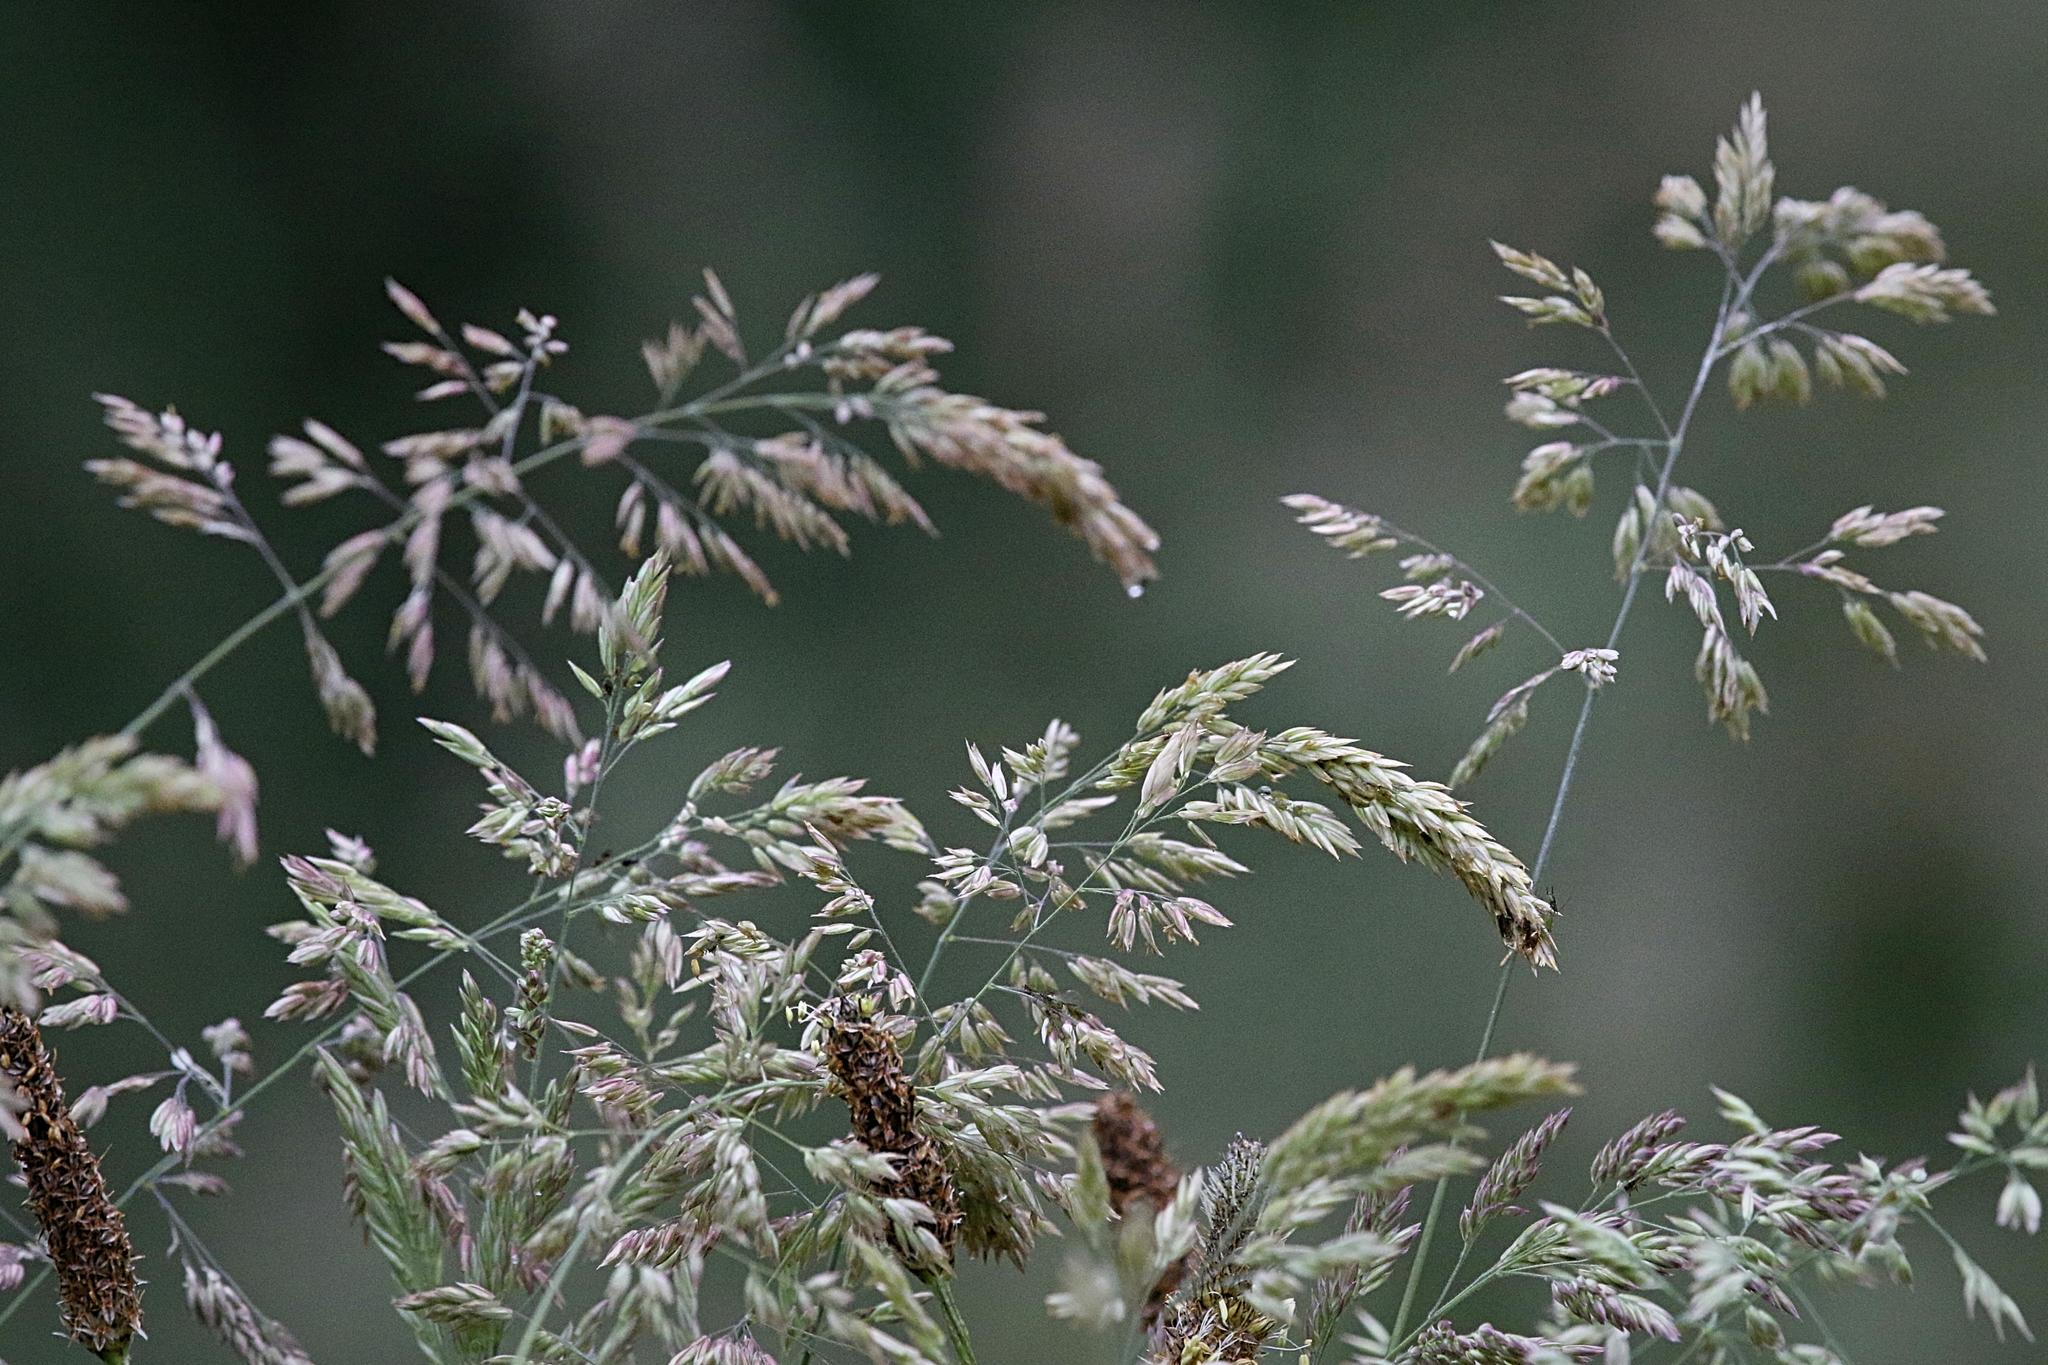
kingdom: Plantae
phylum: Tracheophyta
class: Liliopsida
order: Poales
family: Poaceae
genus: Holcus
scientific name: Holcus lanatus
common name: Yorkshire-fog
